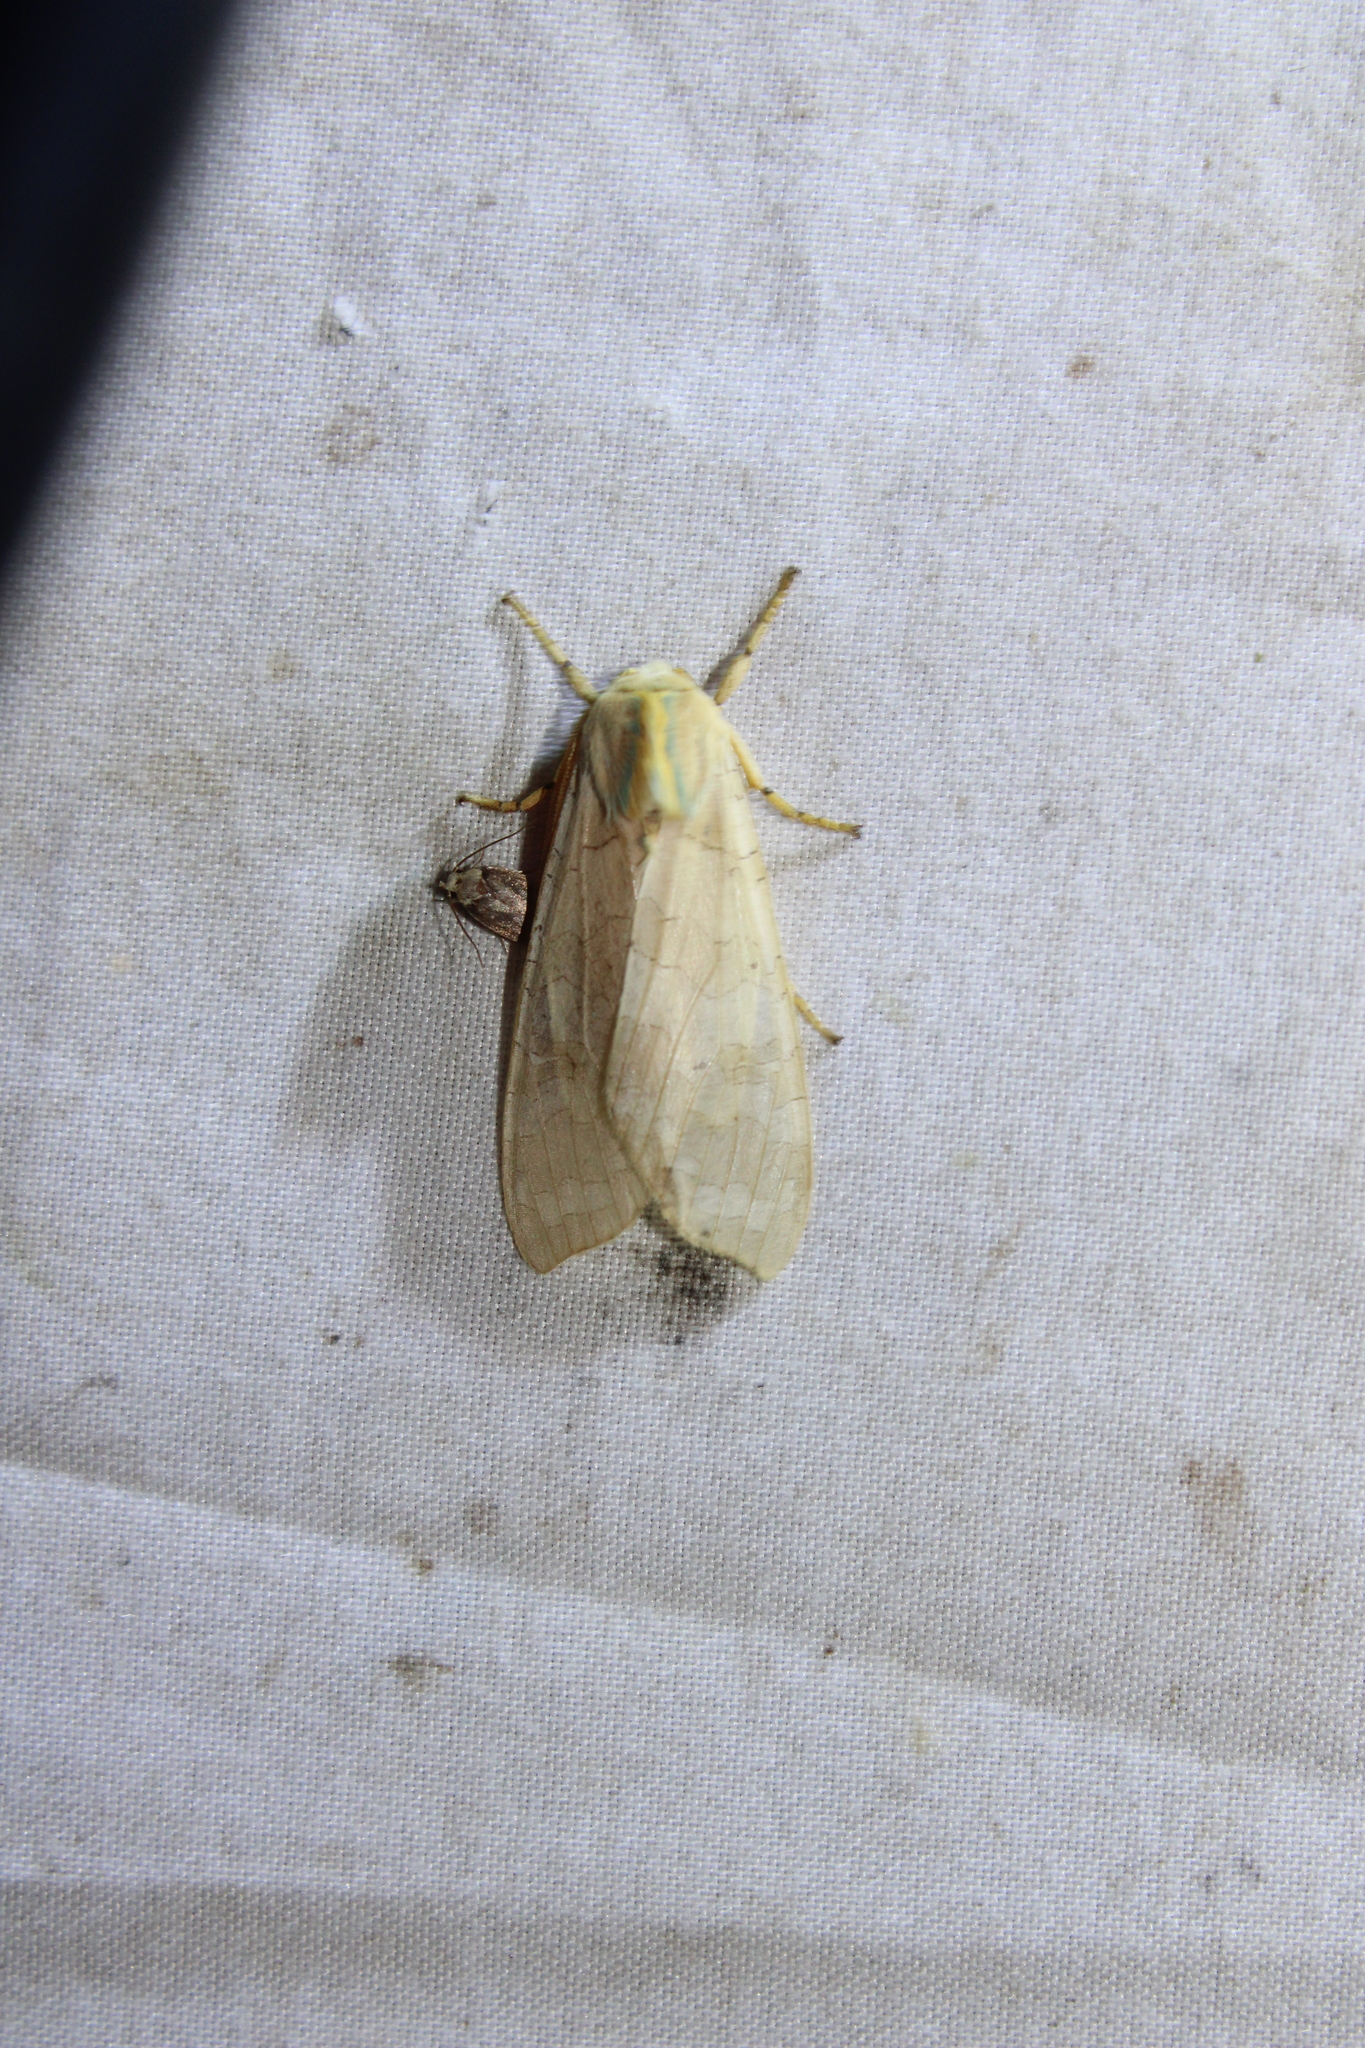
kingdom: Animalia
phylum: Arthropoda
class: Insecta
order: Lepidoptera
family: Erebidae
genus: Halysidota
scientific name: Halysidota
